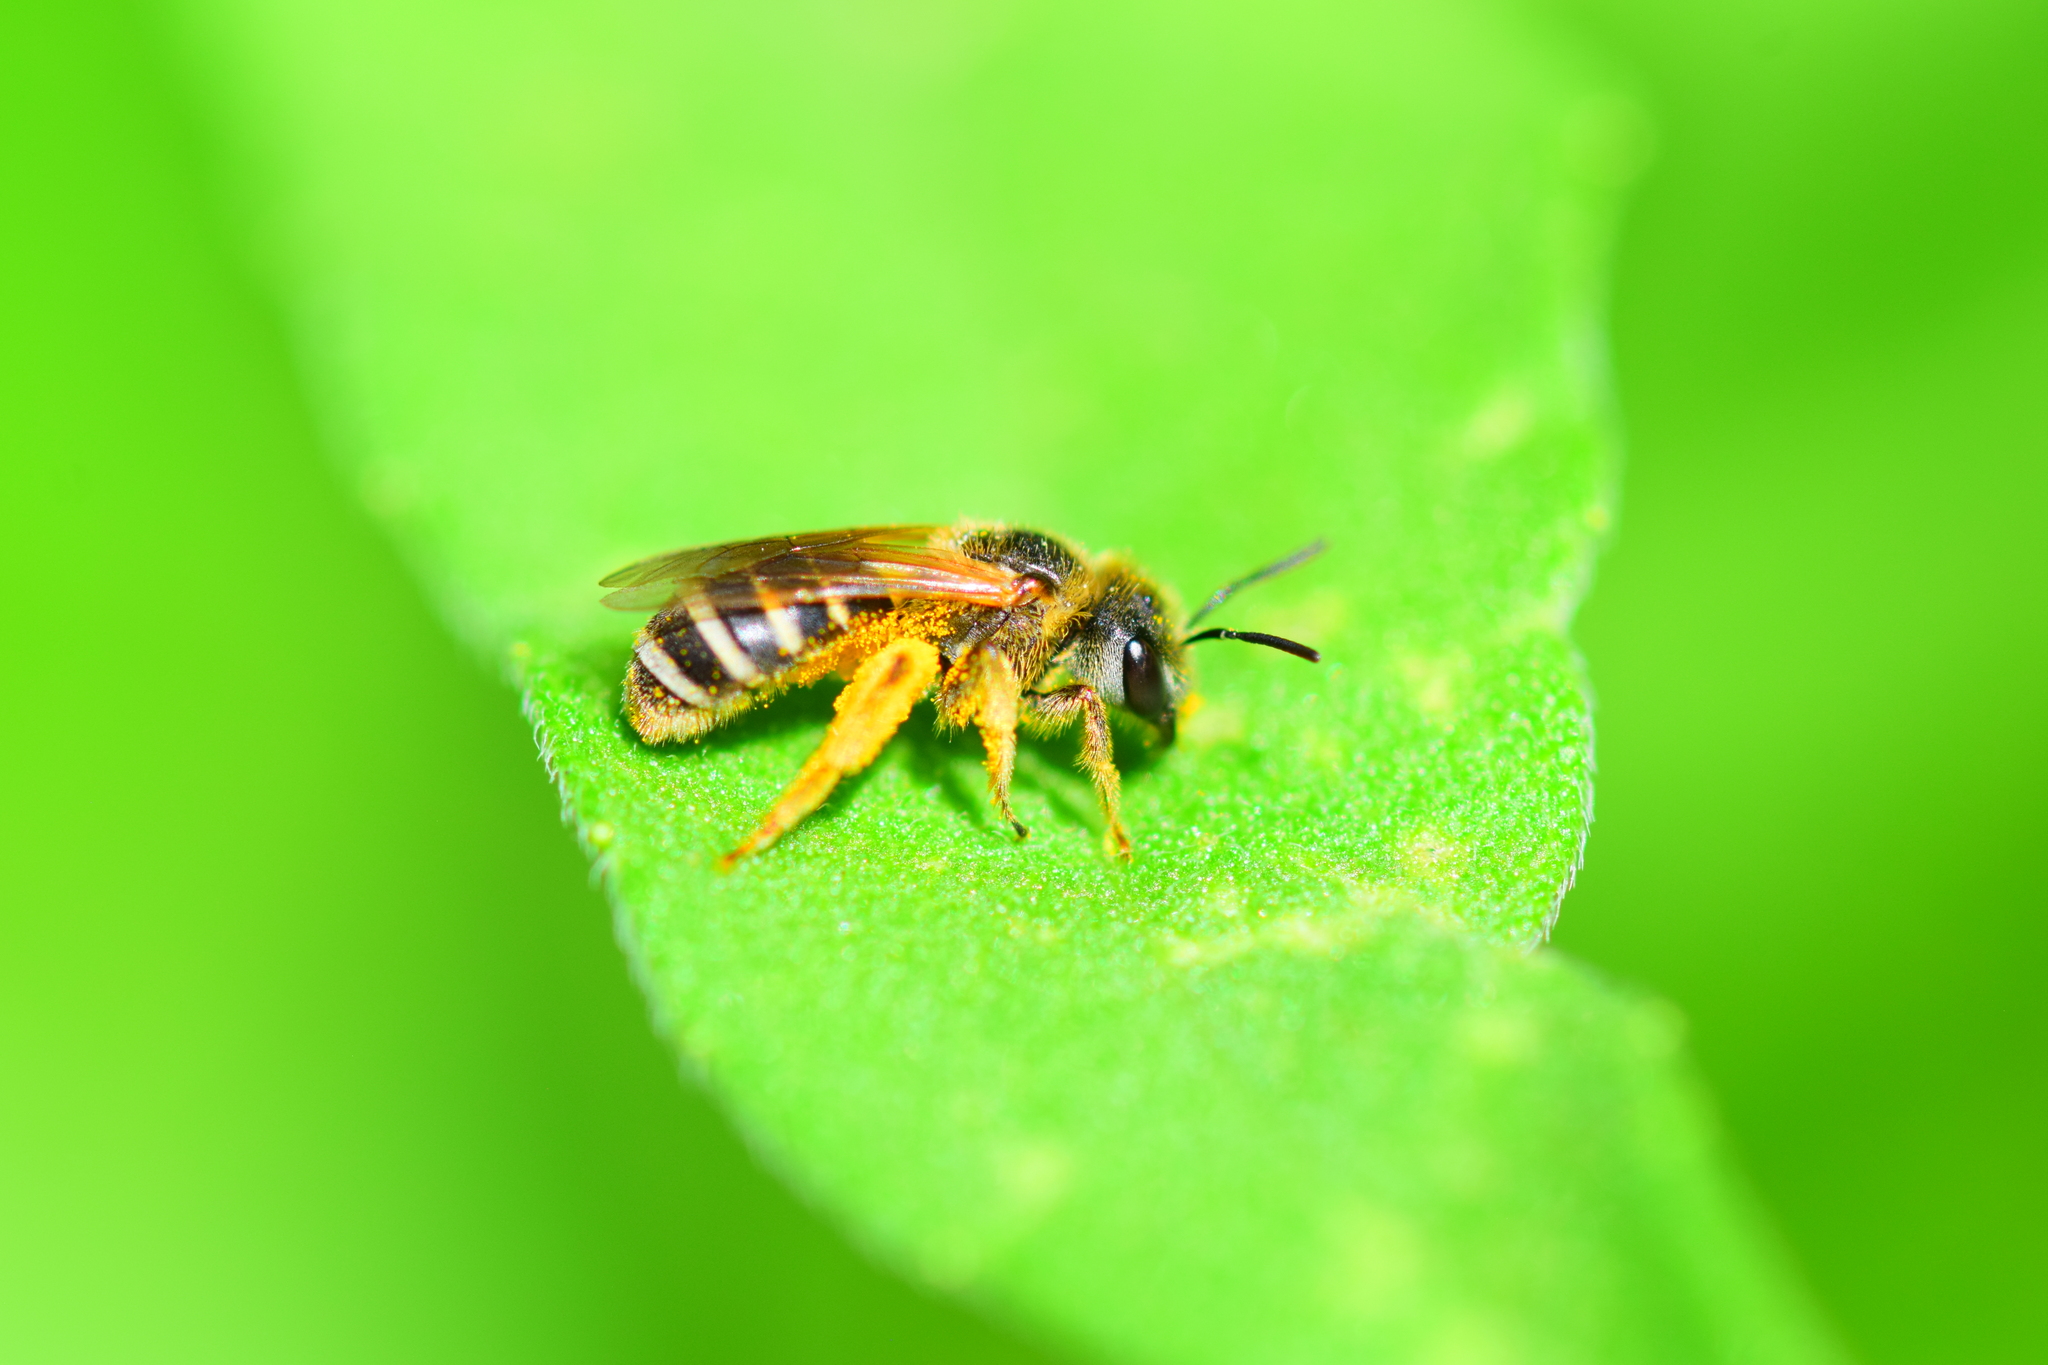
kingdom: Animalia
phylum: Arthropoda
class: Insecta
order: Hymenoptera
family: Halictidae
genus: Halictus
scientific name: Halictus ligatus
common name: Ligated furrow bee
